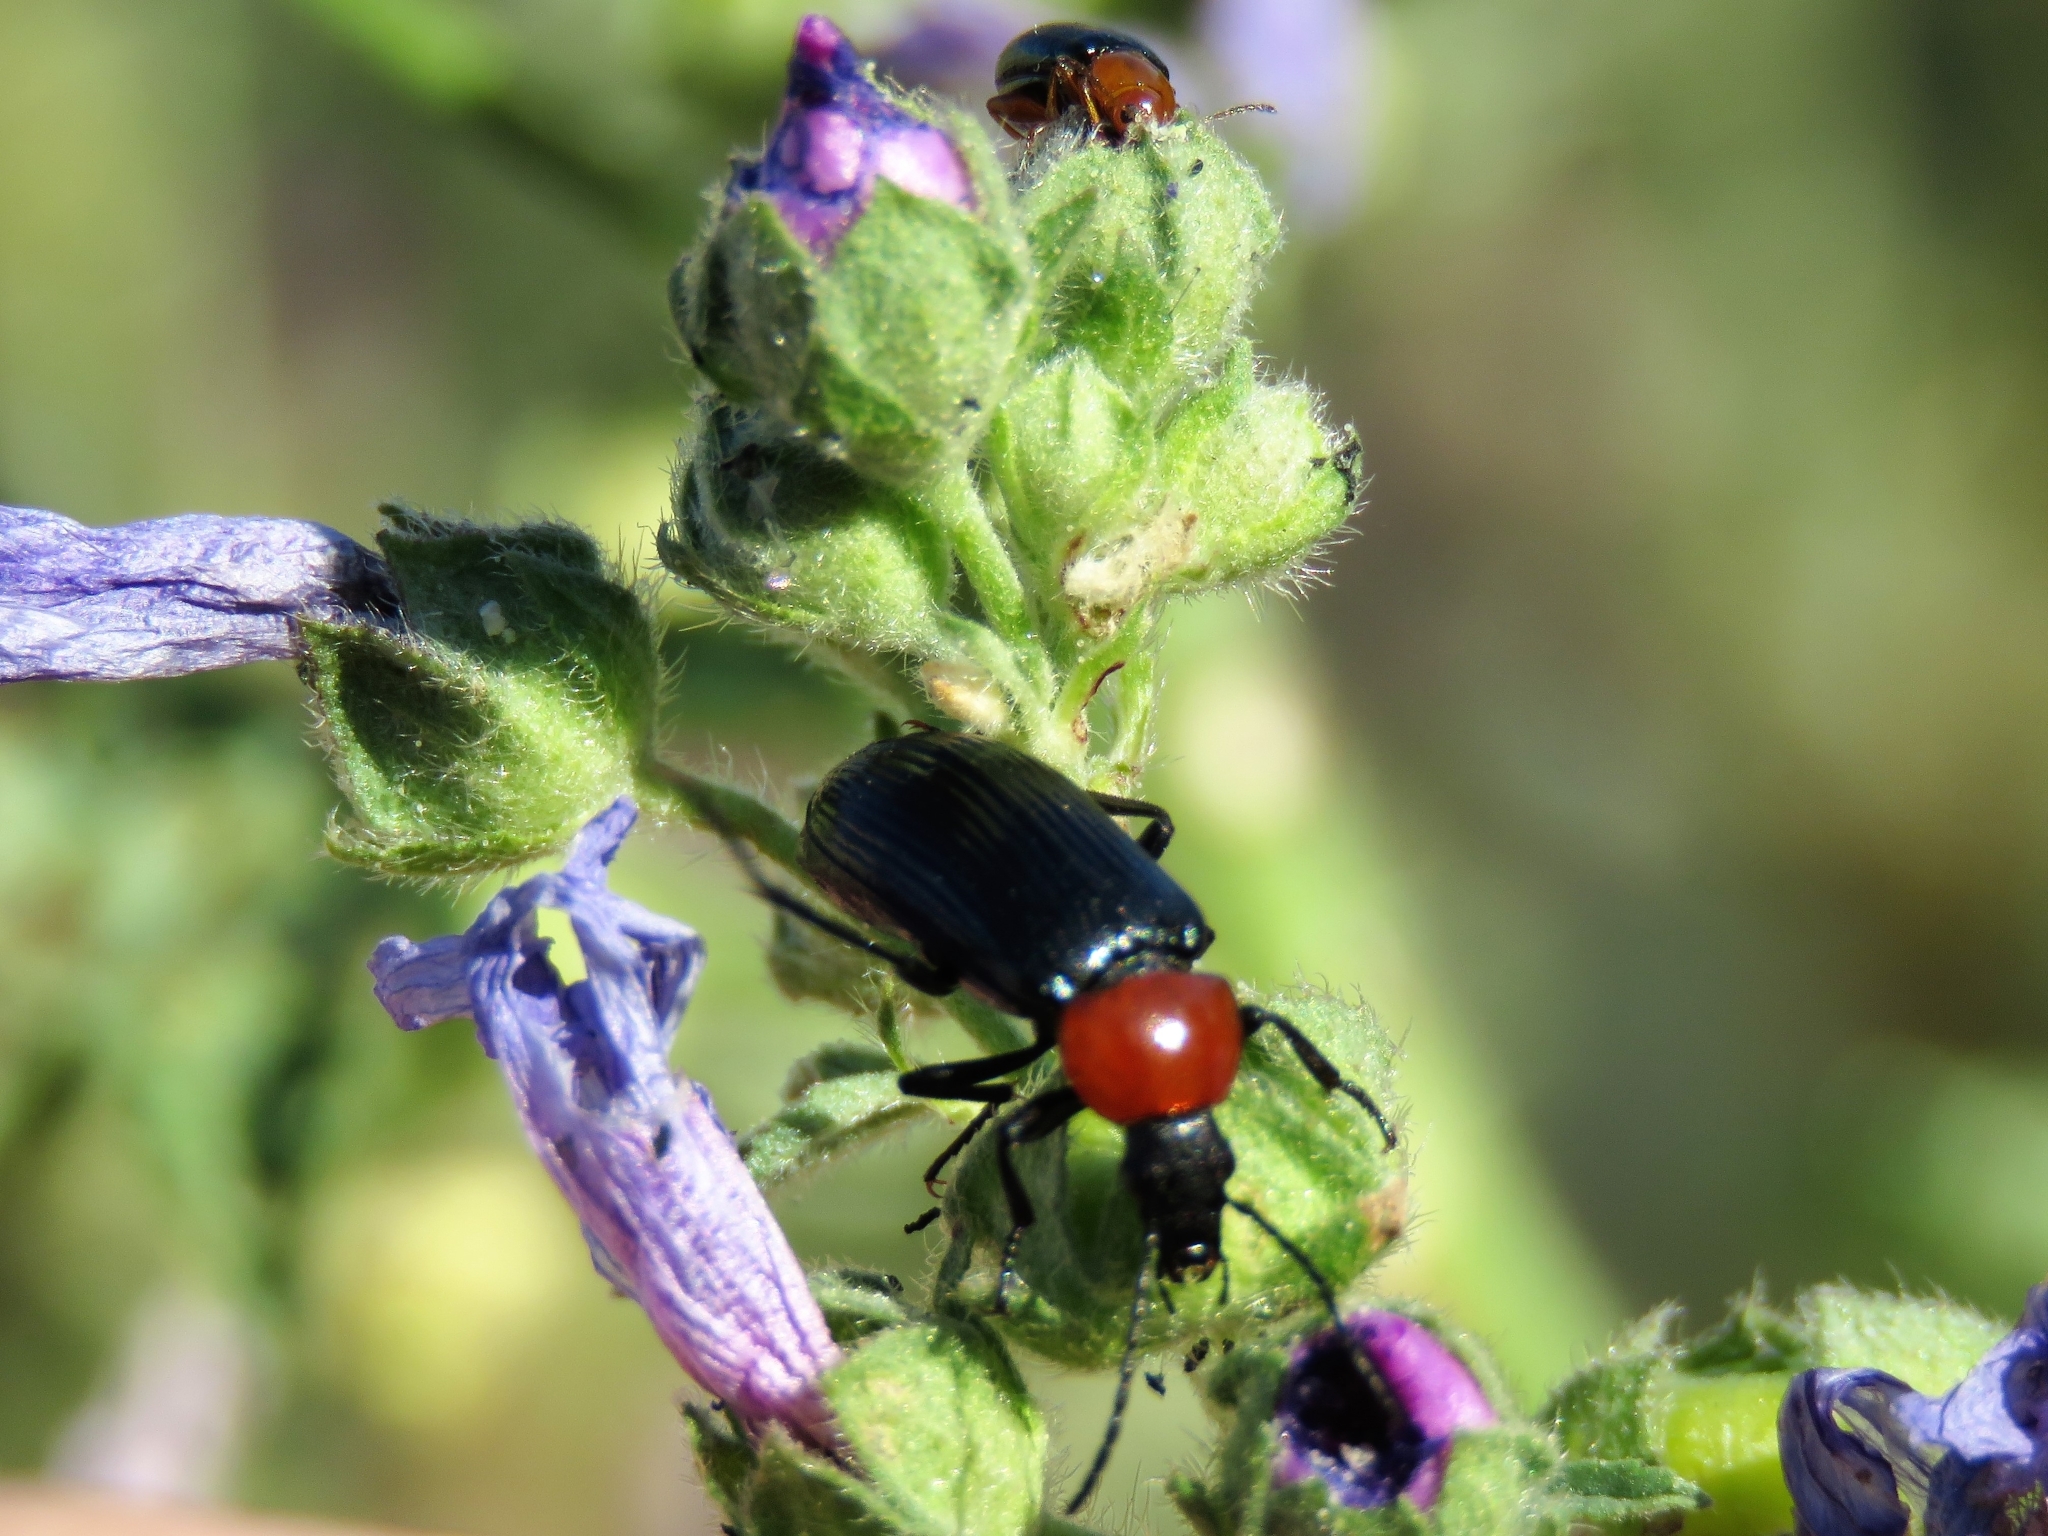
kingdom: Animalia
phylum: Arthropoda
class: Insecta
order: Coleoptera
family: Tenebrionidae
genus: Heliotaurus
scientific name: Heliotaurus ruficollis
